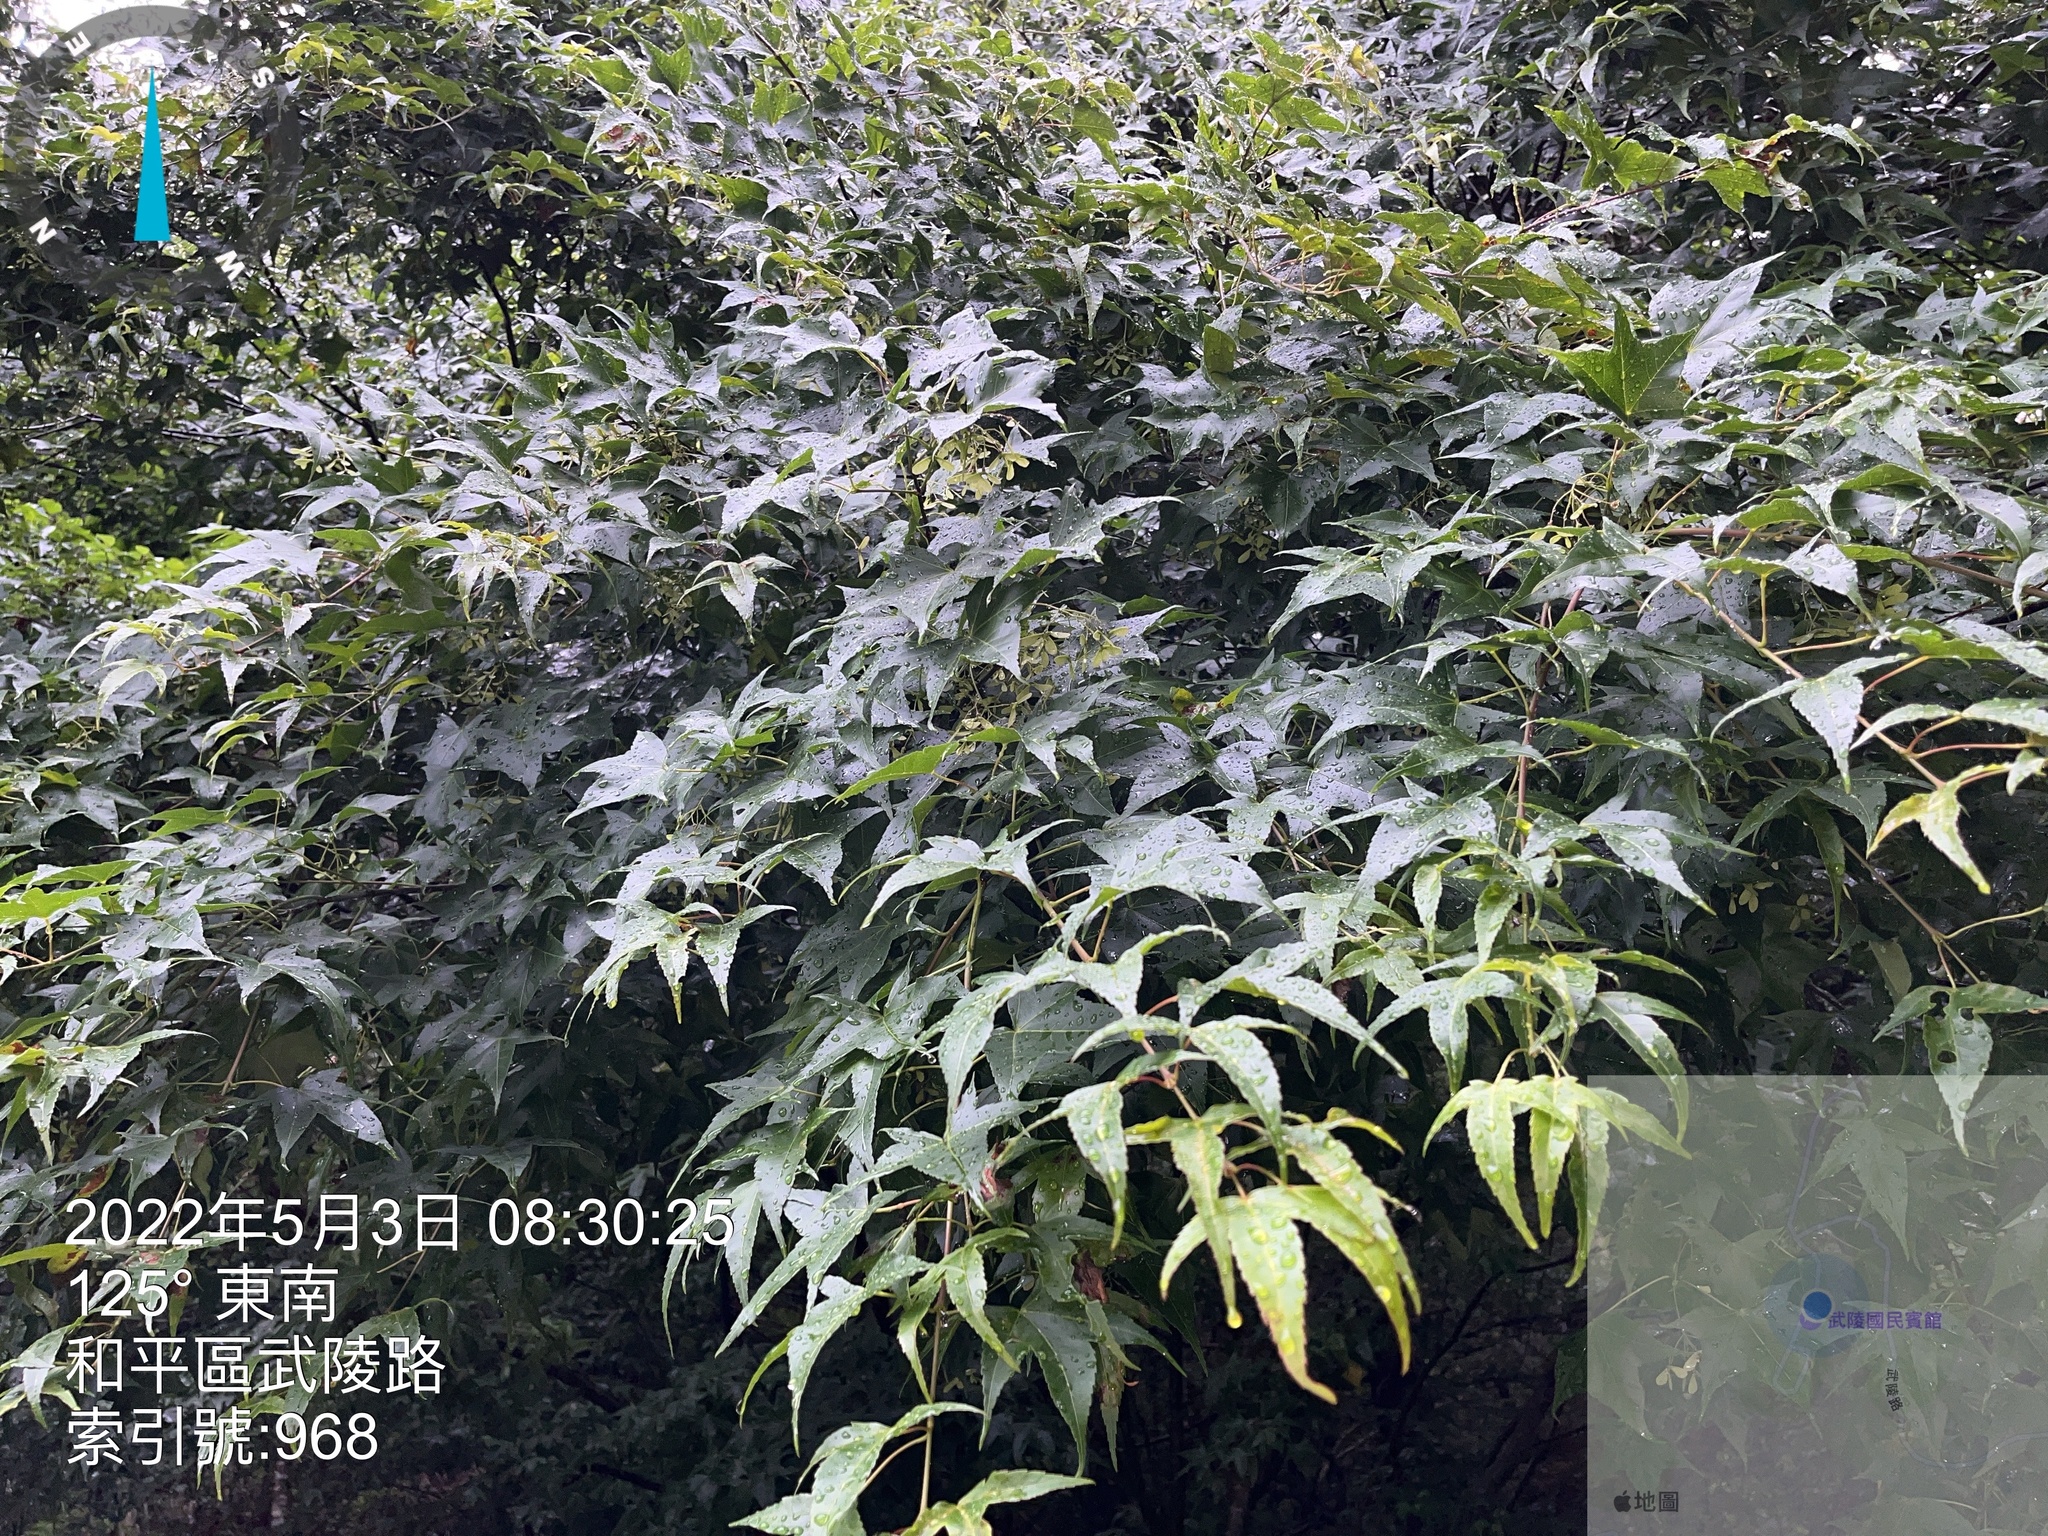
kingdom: Plantae
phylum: Tracheophyta
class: Magnoliopsida
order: Sapindales
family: Sapindaceae
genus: Acer
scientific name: Acer serrulatum
